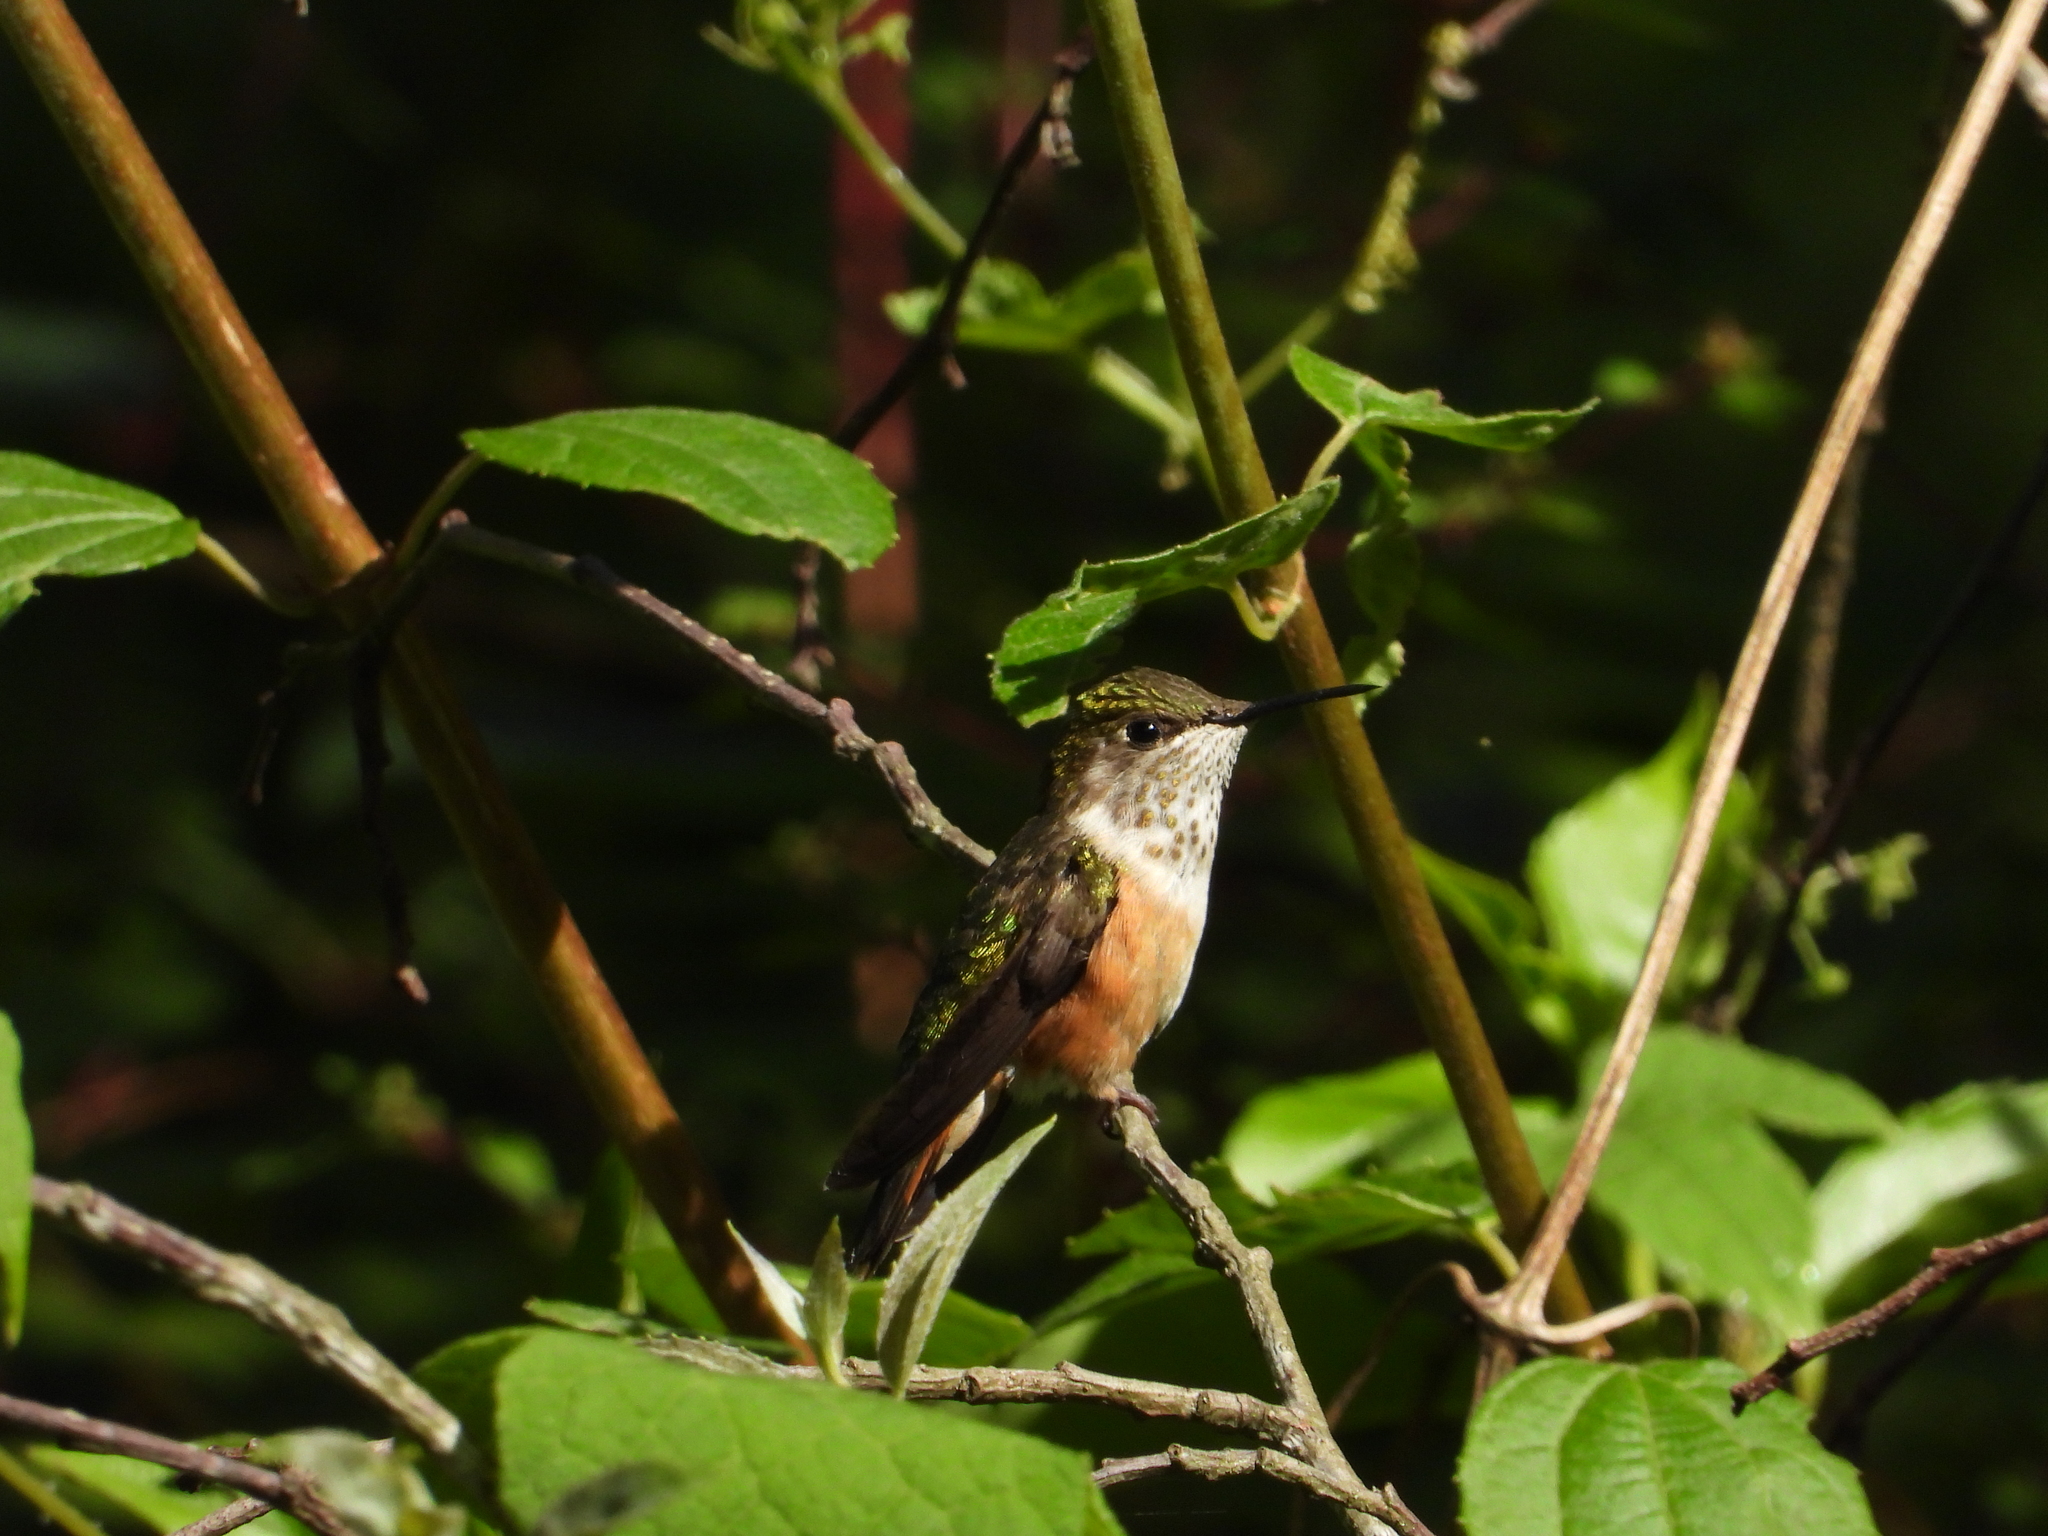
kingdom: Animalia
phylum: Chordata
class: Aves
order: Apodiformes
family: Trochilidae
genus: Selasphorus
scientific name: Selasphorus heloisa
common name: Bumblebee hummingbird
